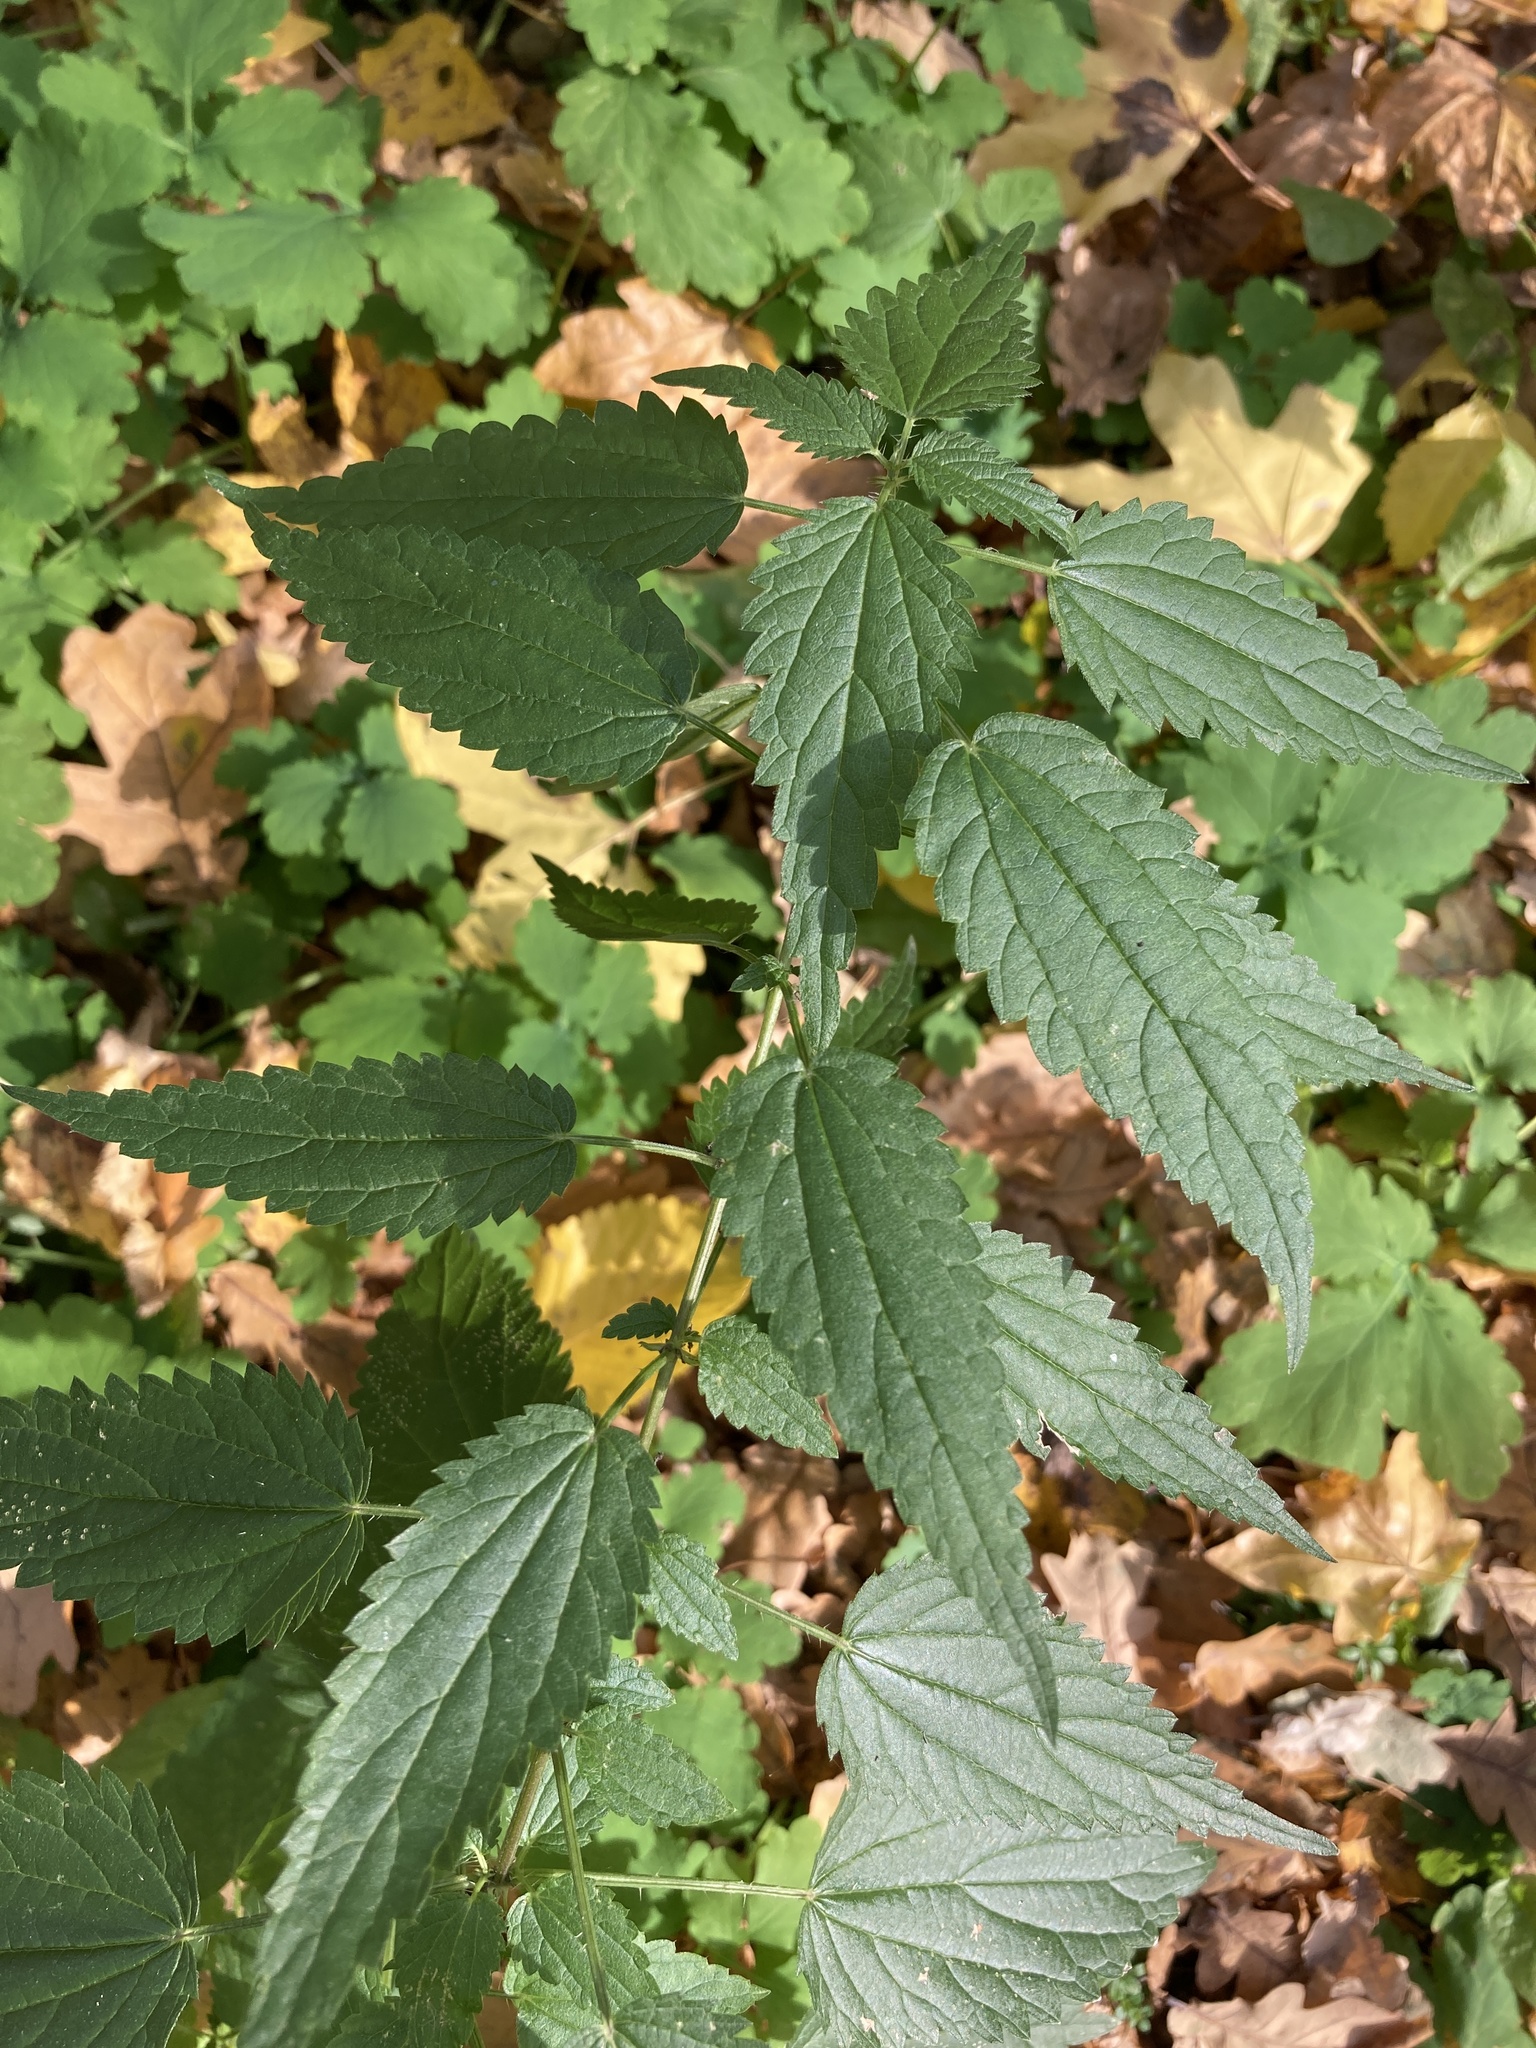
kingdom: Plantae
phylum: Tracheophyta
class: Magnoliopsida
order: Rosales
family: Urticaceae
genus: Urtica
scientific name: Urtica dioica
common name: Common nettle
